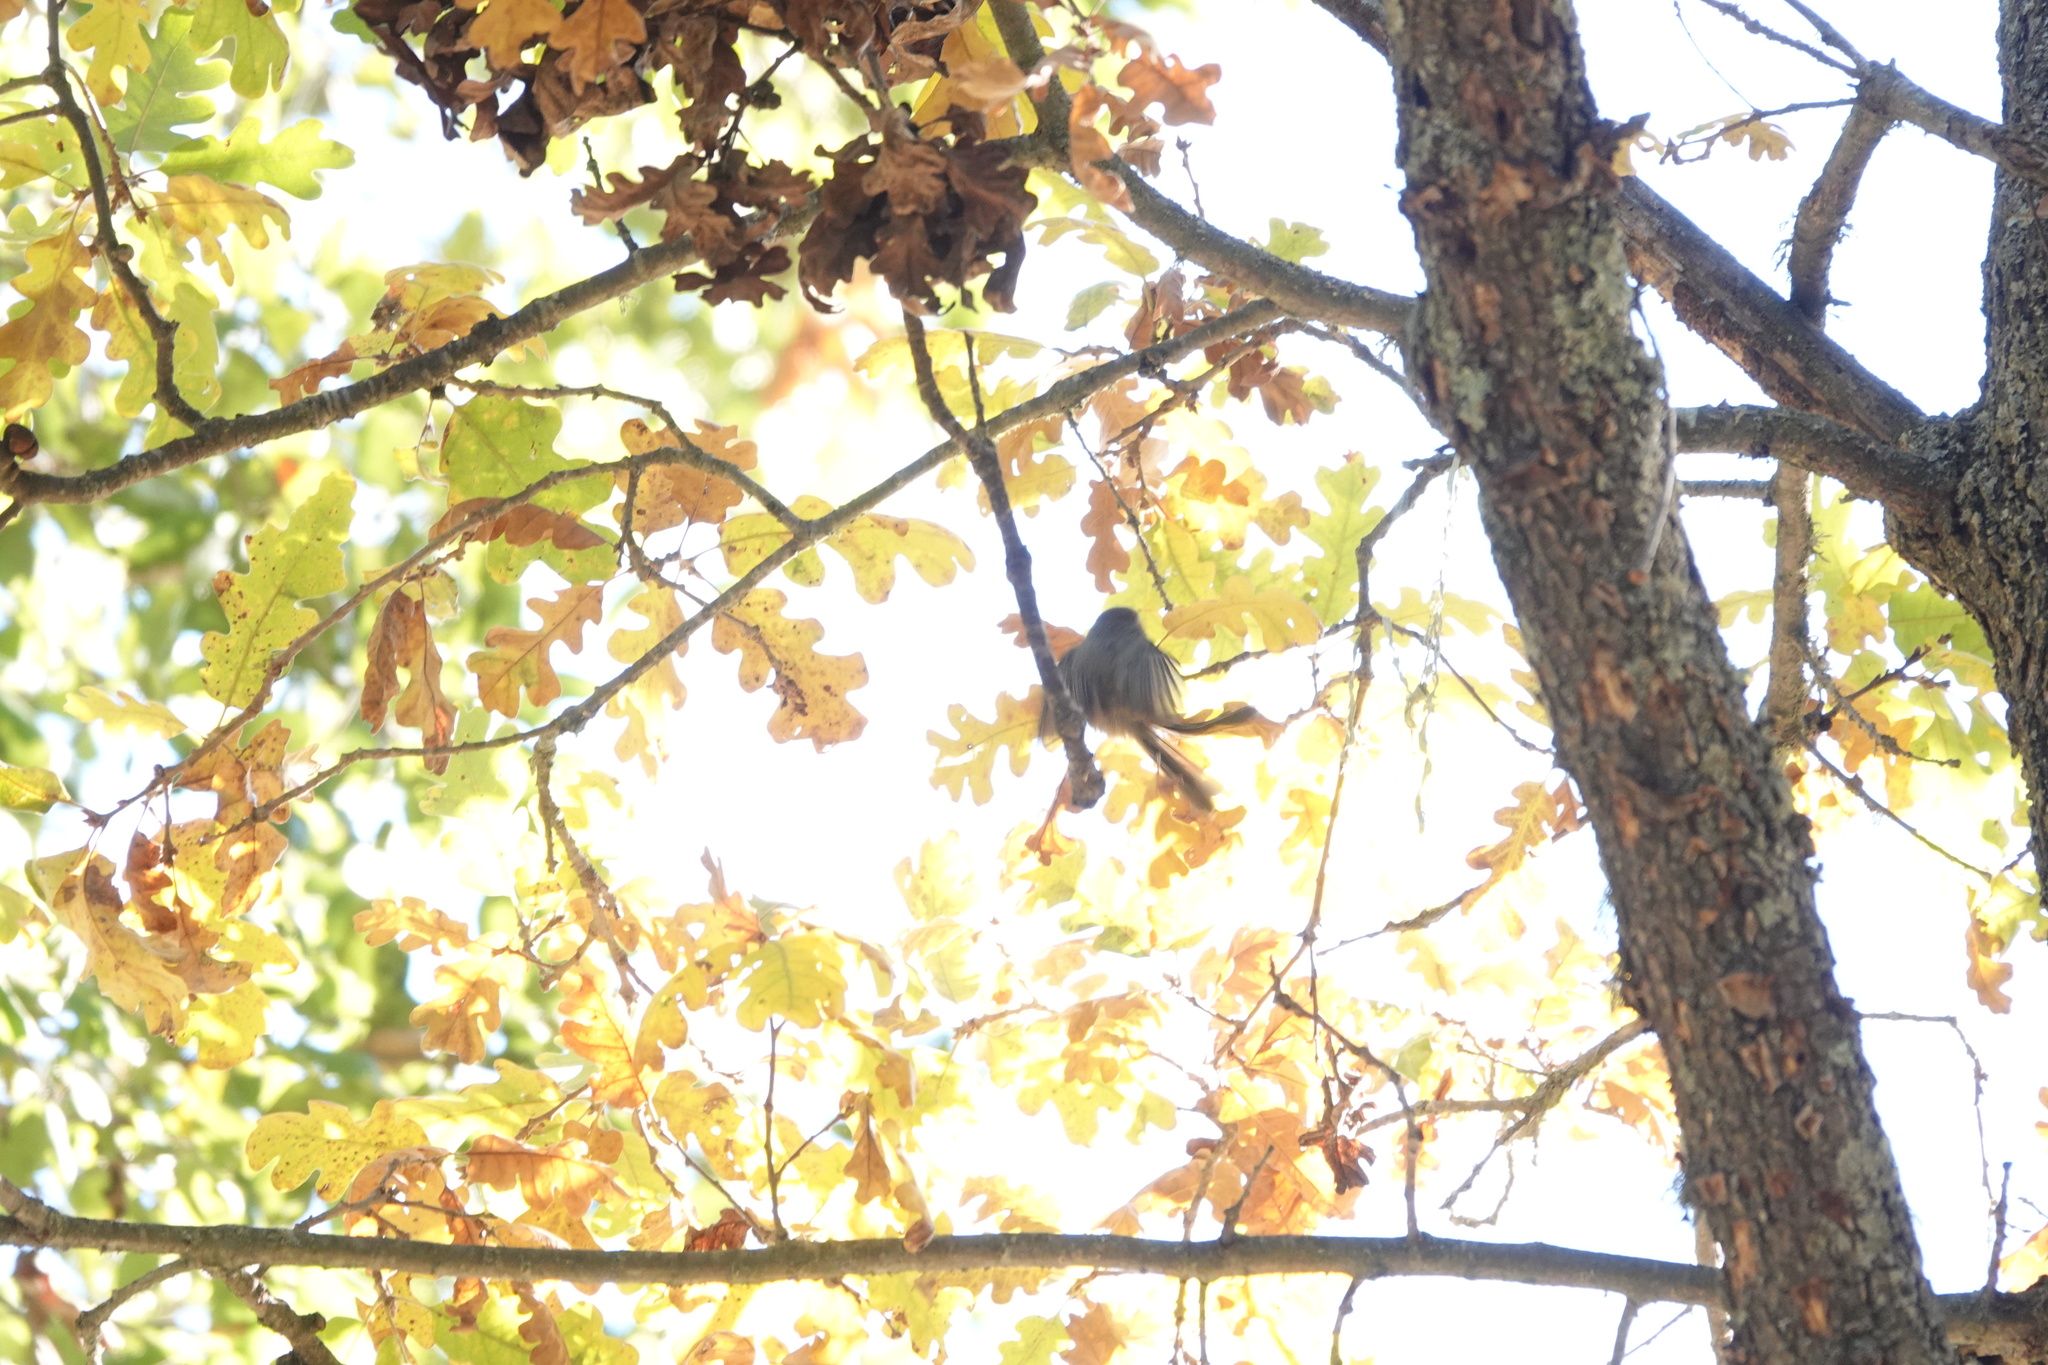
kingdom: Animalia
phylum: Chordata
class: Aves
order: Passeriformes
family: Aegithalidae
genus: Psaltriparus
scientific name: Psaltriparus minimus
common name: American bushtit
